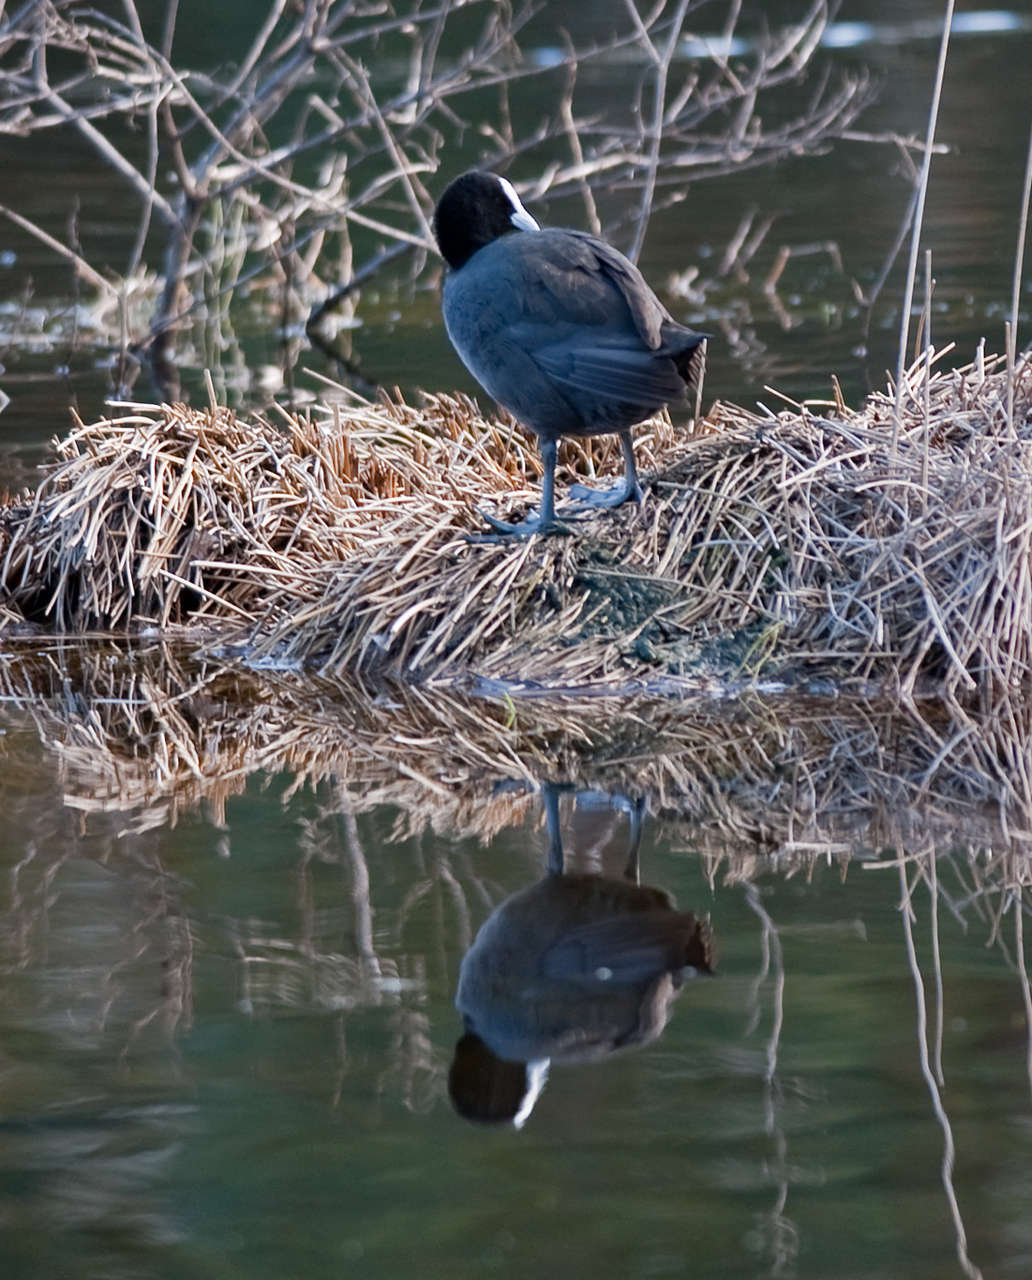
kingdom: Animalia
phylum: Chordata
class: Aves
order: Gruiformes
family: Rallidae
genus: Fulica
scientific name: Fulica atra
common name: Eurasian coot
